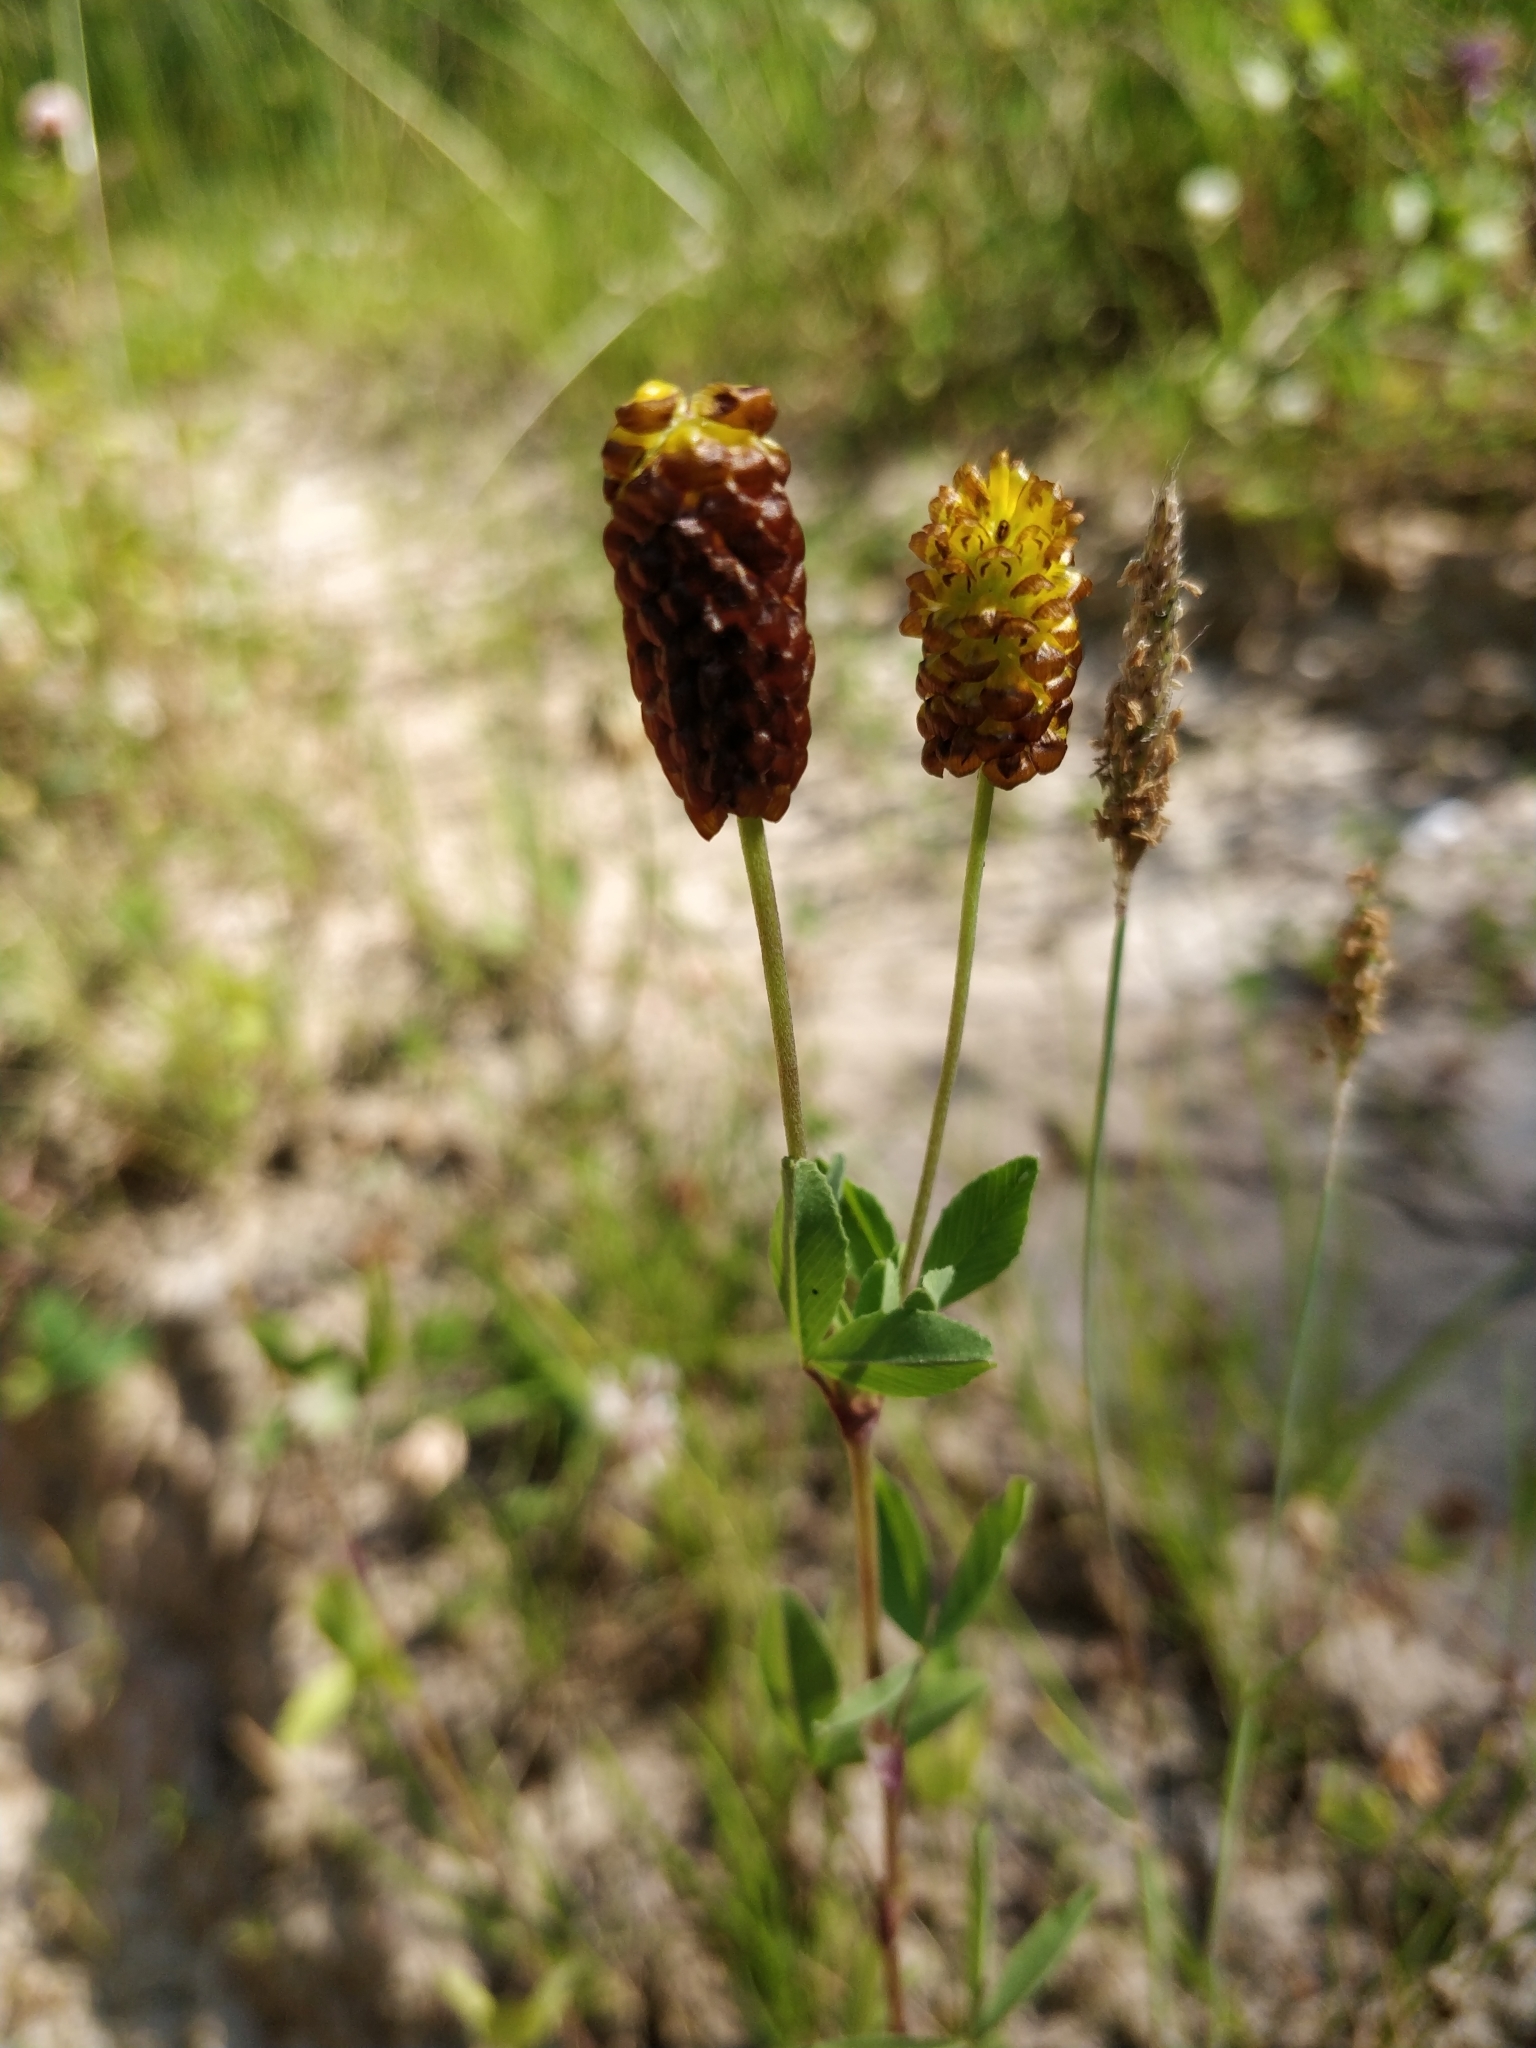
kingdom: Plantae
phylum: Tracheophyta
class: Magnoliopsida
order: Fabales
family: Fabaceae
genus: Trifolium
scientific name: Trifolium spadiceum
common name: Brown moor clover
